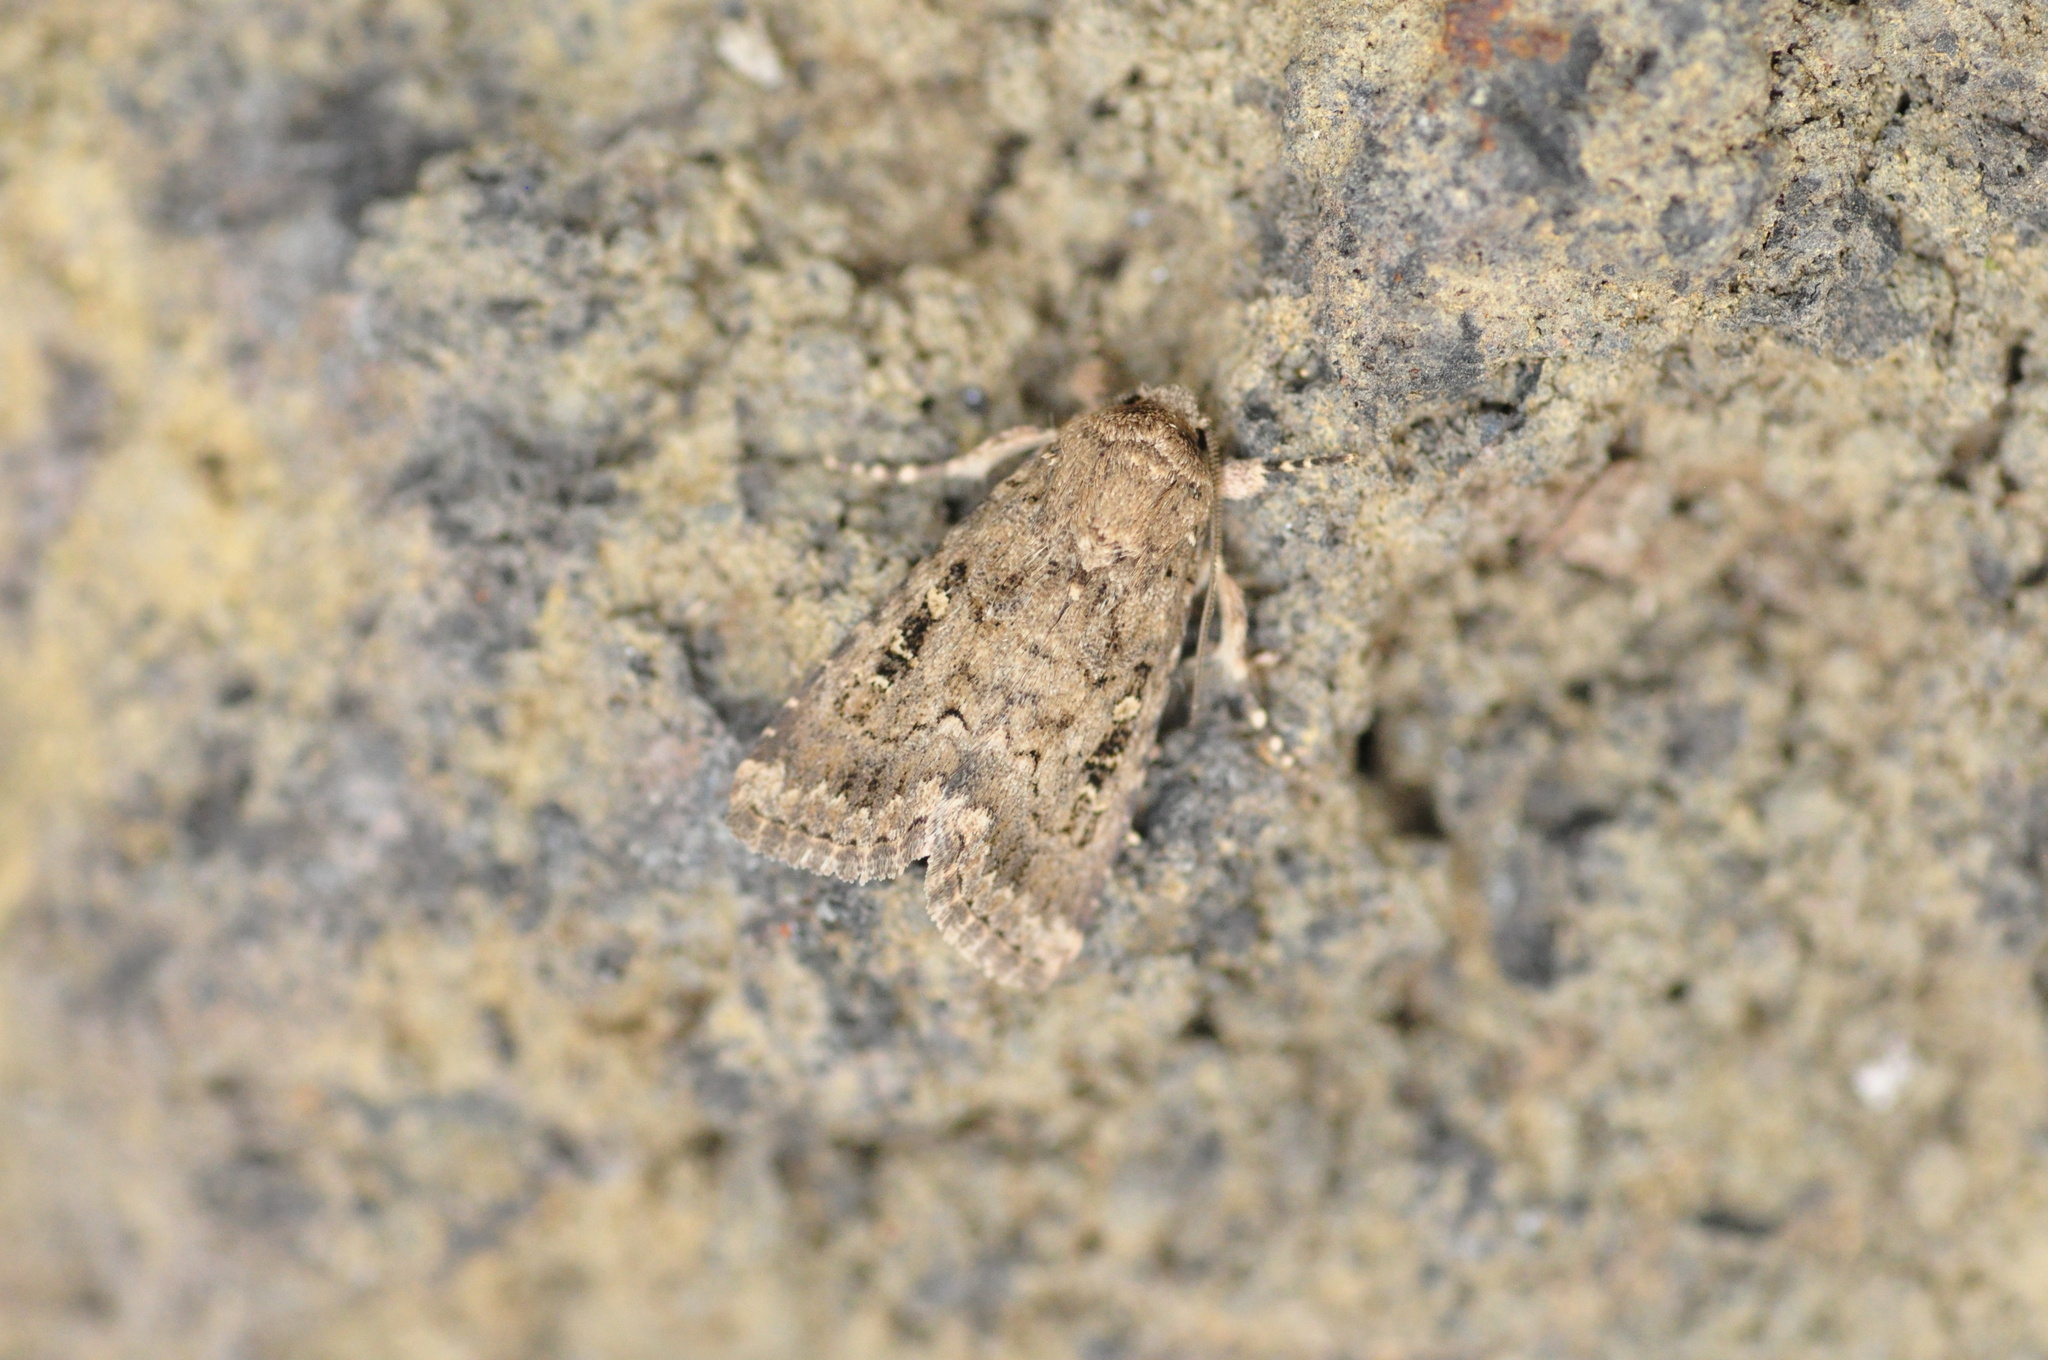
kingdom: Animalia
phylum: Arthropoda
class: Insecta
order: Lepidoptera
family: Noctuidae
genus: Spodoptera
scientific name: Spodoptera cilium
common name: Dark mottled willow
